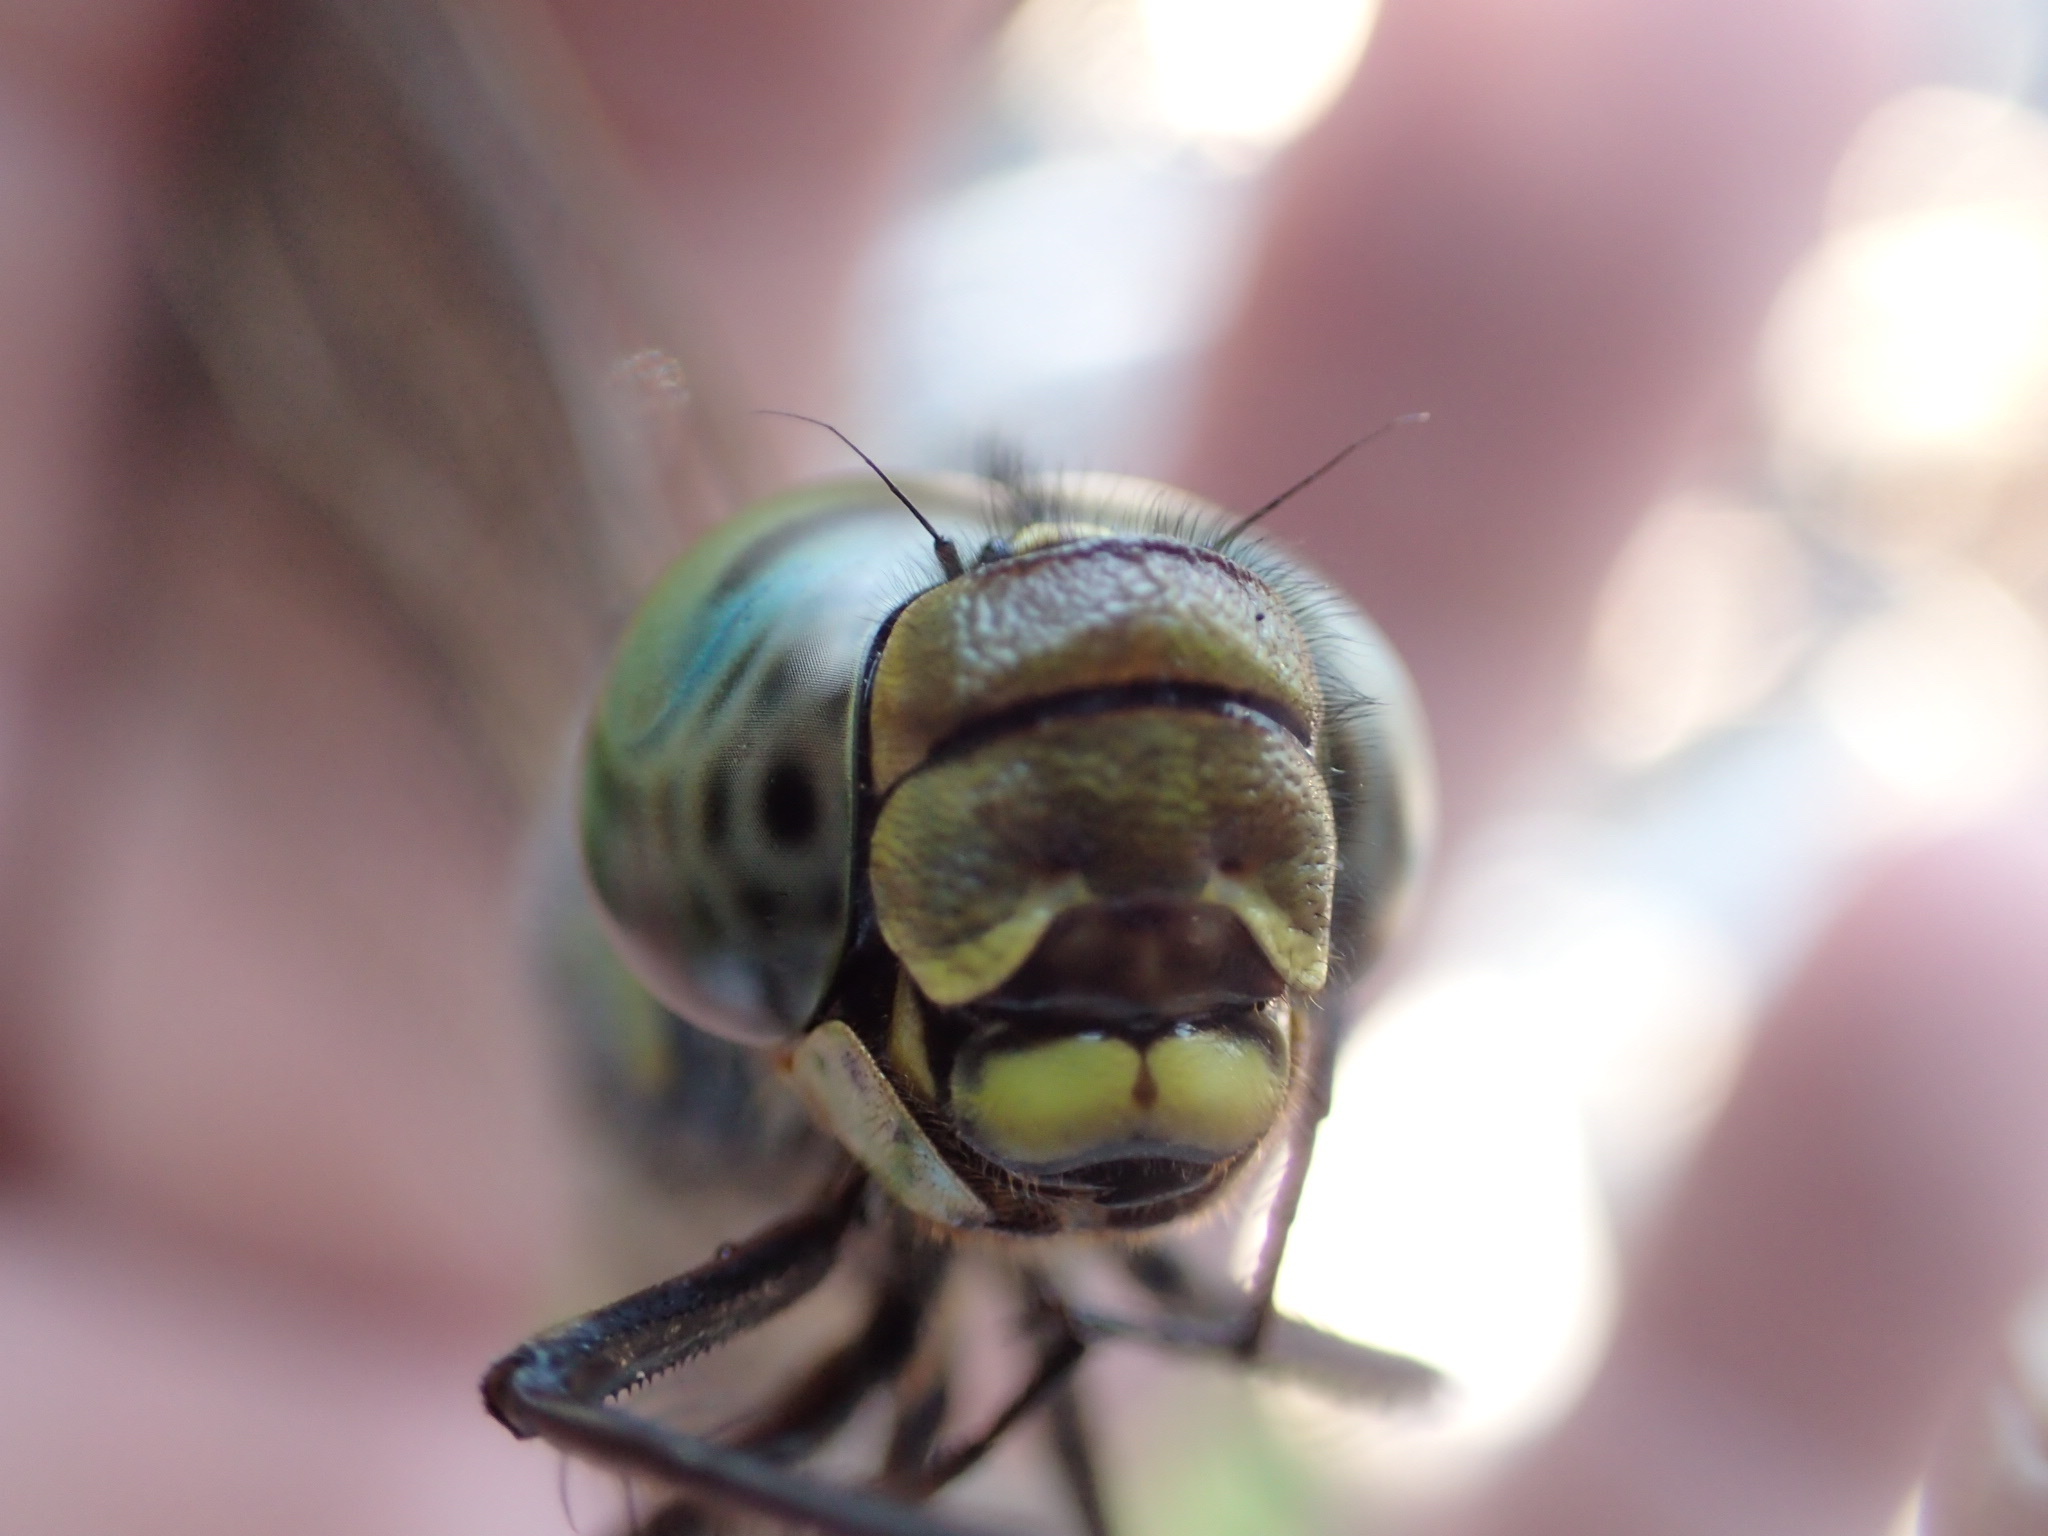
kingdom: Animalia
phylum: Arthropoda
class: Insecta
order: Odonata
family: Aeshnidae
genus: Aeshna
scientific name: Aeshna eremita
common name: Lake darner
